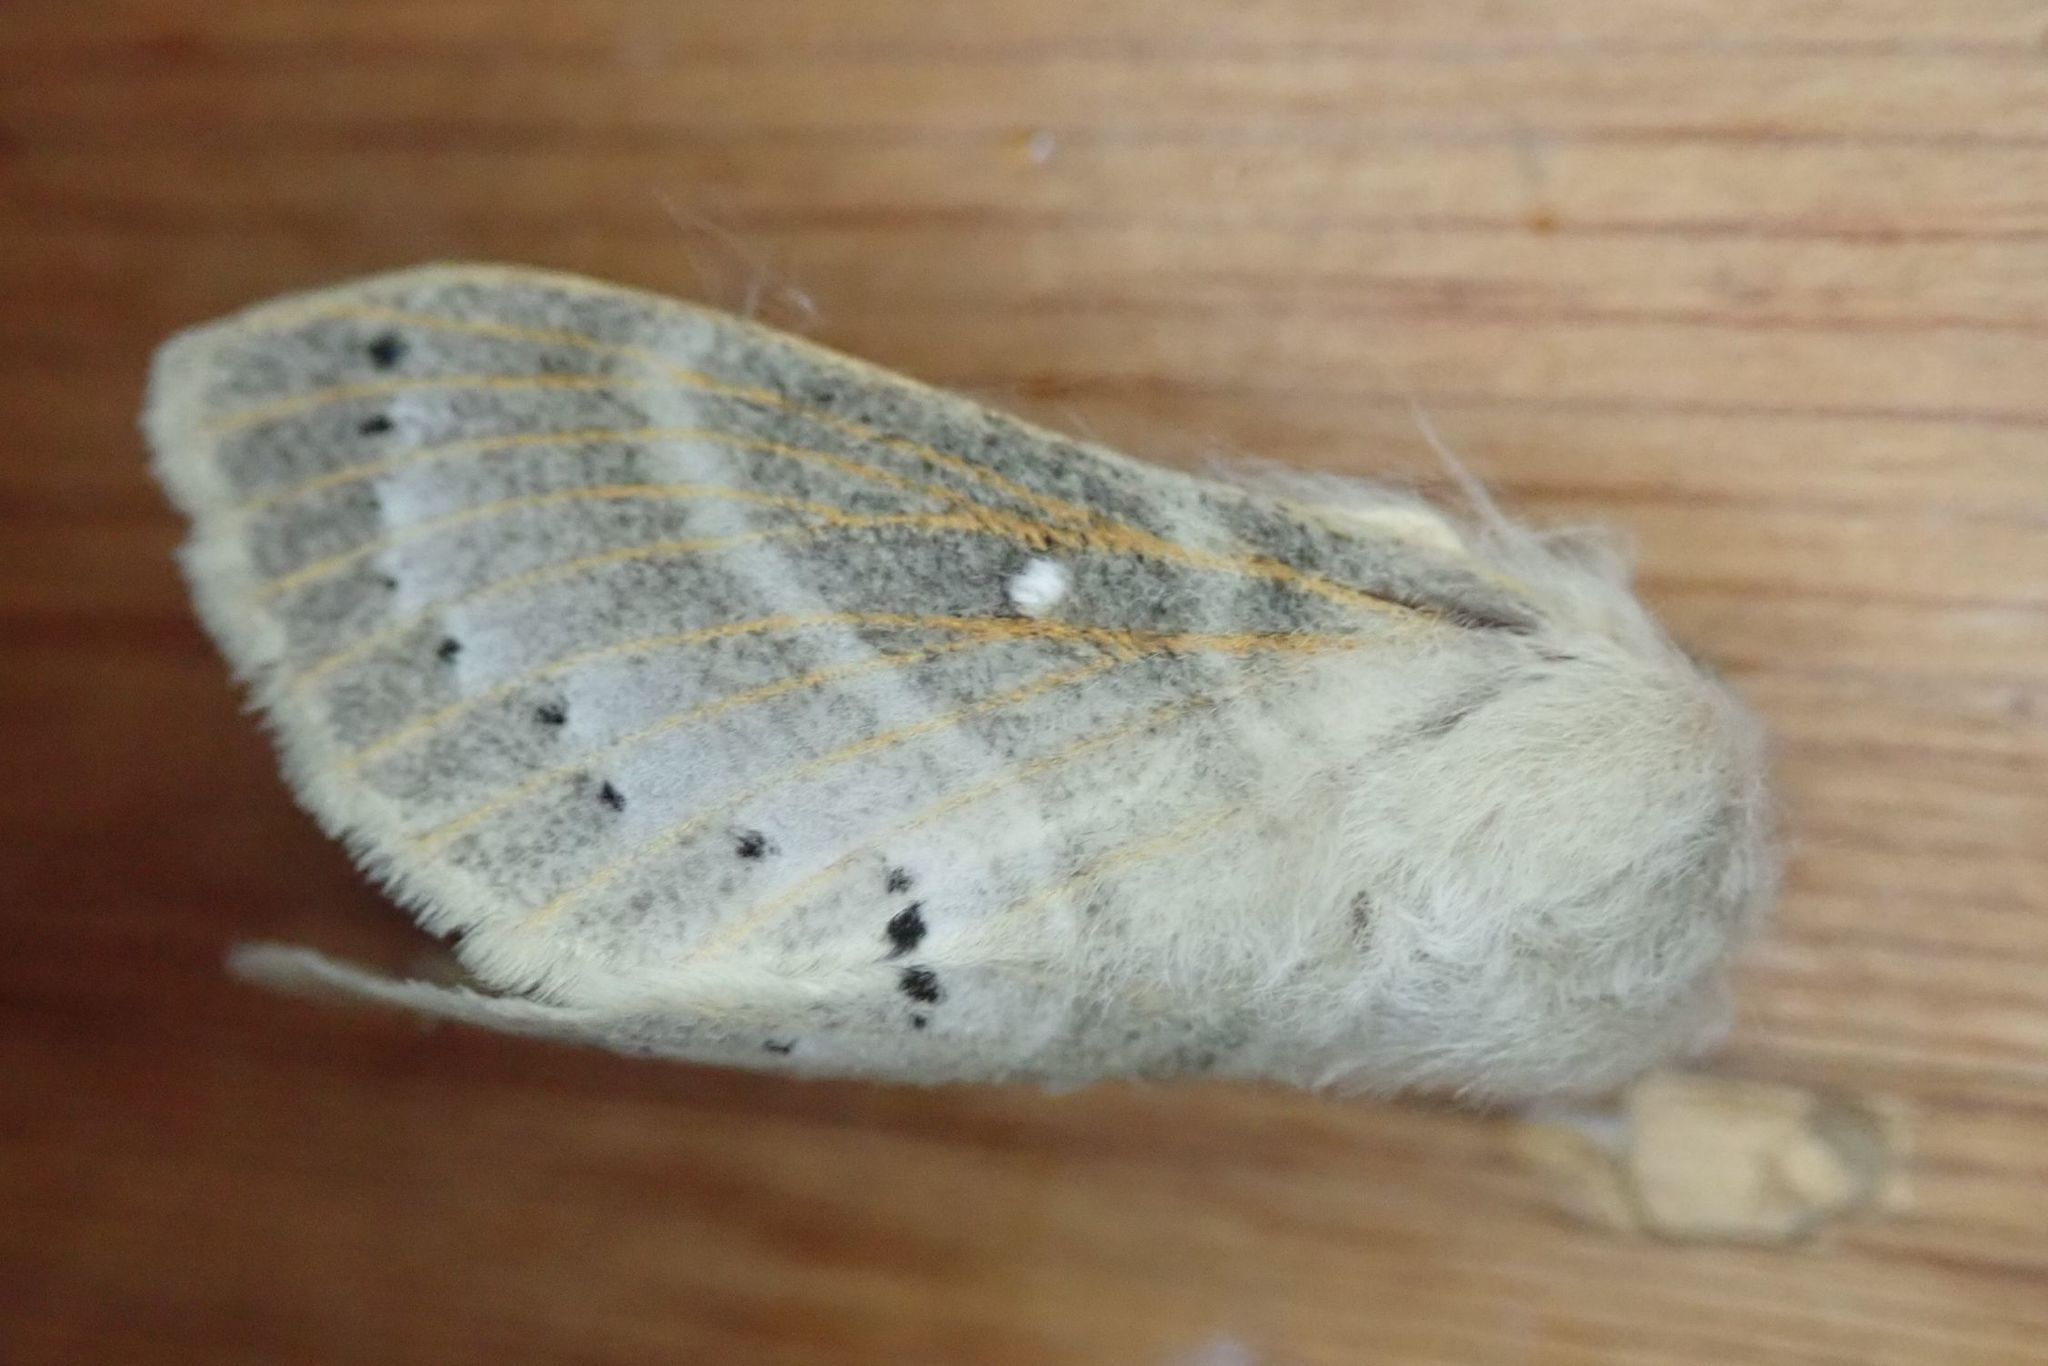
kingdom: Animalia
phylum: Arthropoda
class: Insecta
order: Lepidoptera
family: Lasiocampidae
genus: Bombycopsis
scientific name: Bombycopsis tephrobaphes
